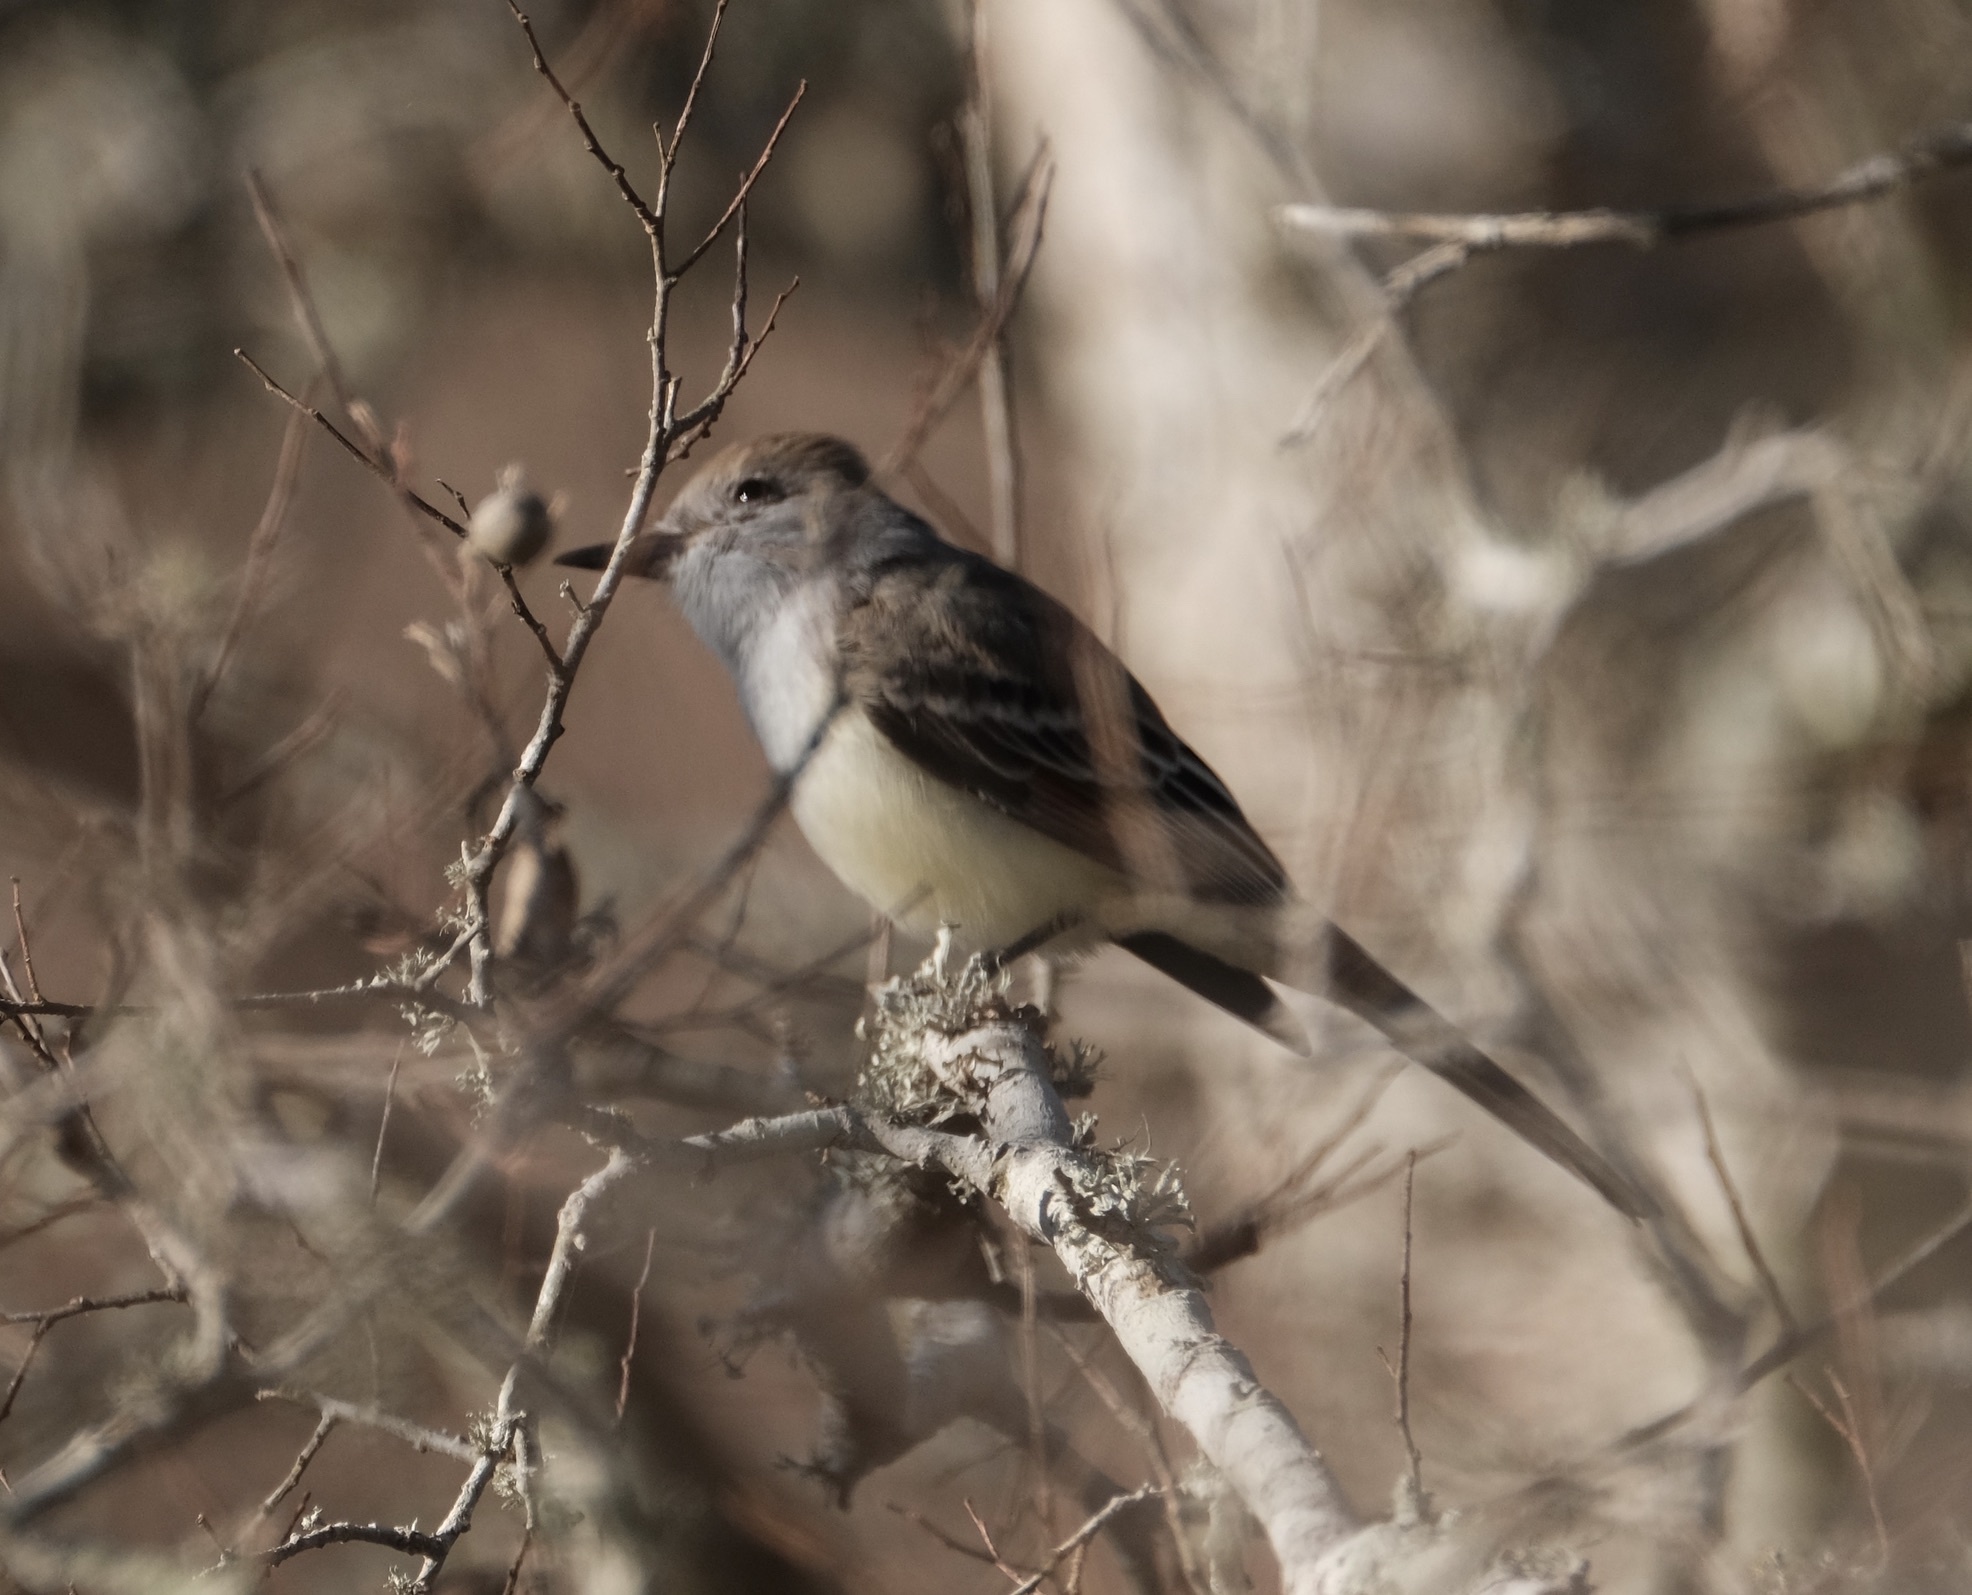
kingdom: Animalia
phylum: Chordata
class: Aves
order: Passeriformes
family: Tyrannidae
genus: Myiarchus
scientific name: Myiarchus cinerascens
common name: Ash-throated flycatcher
